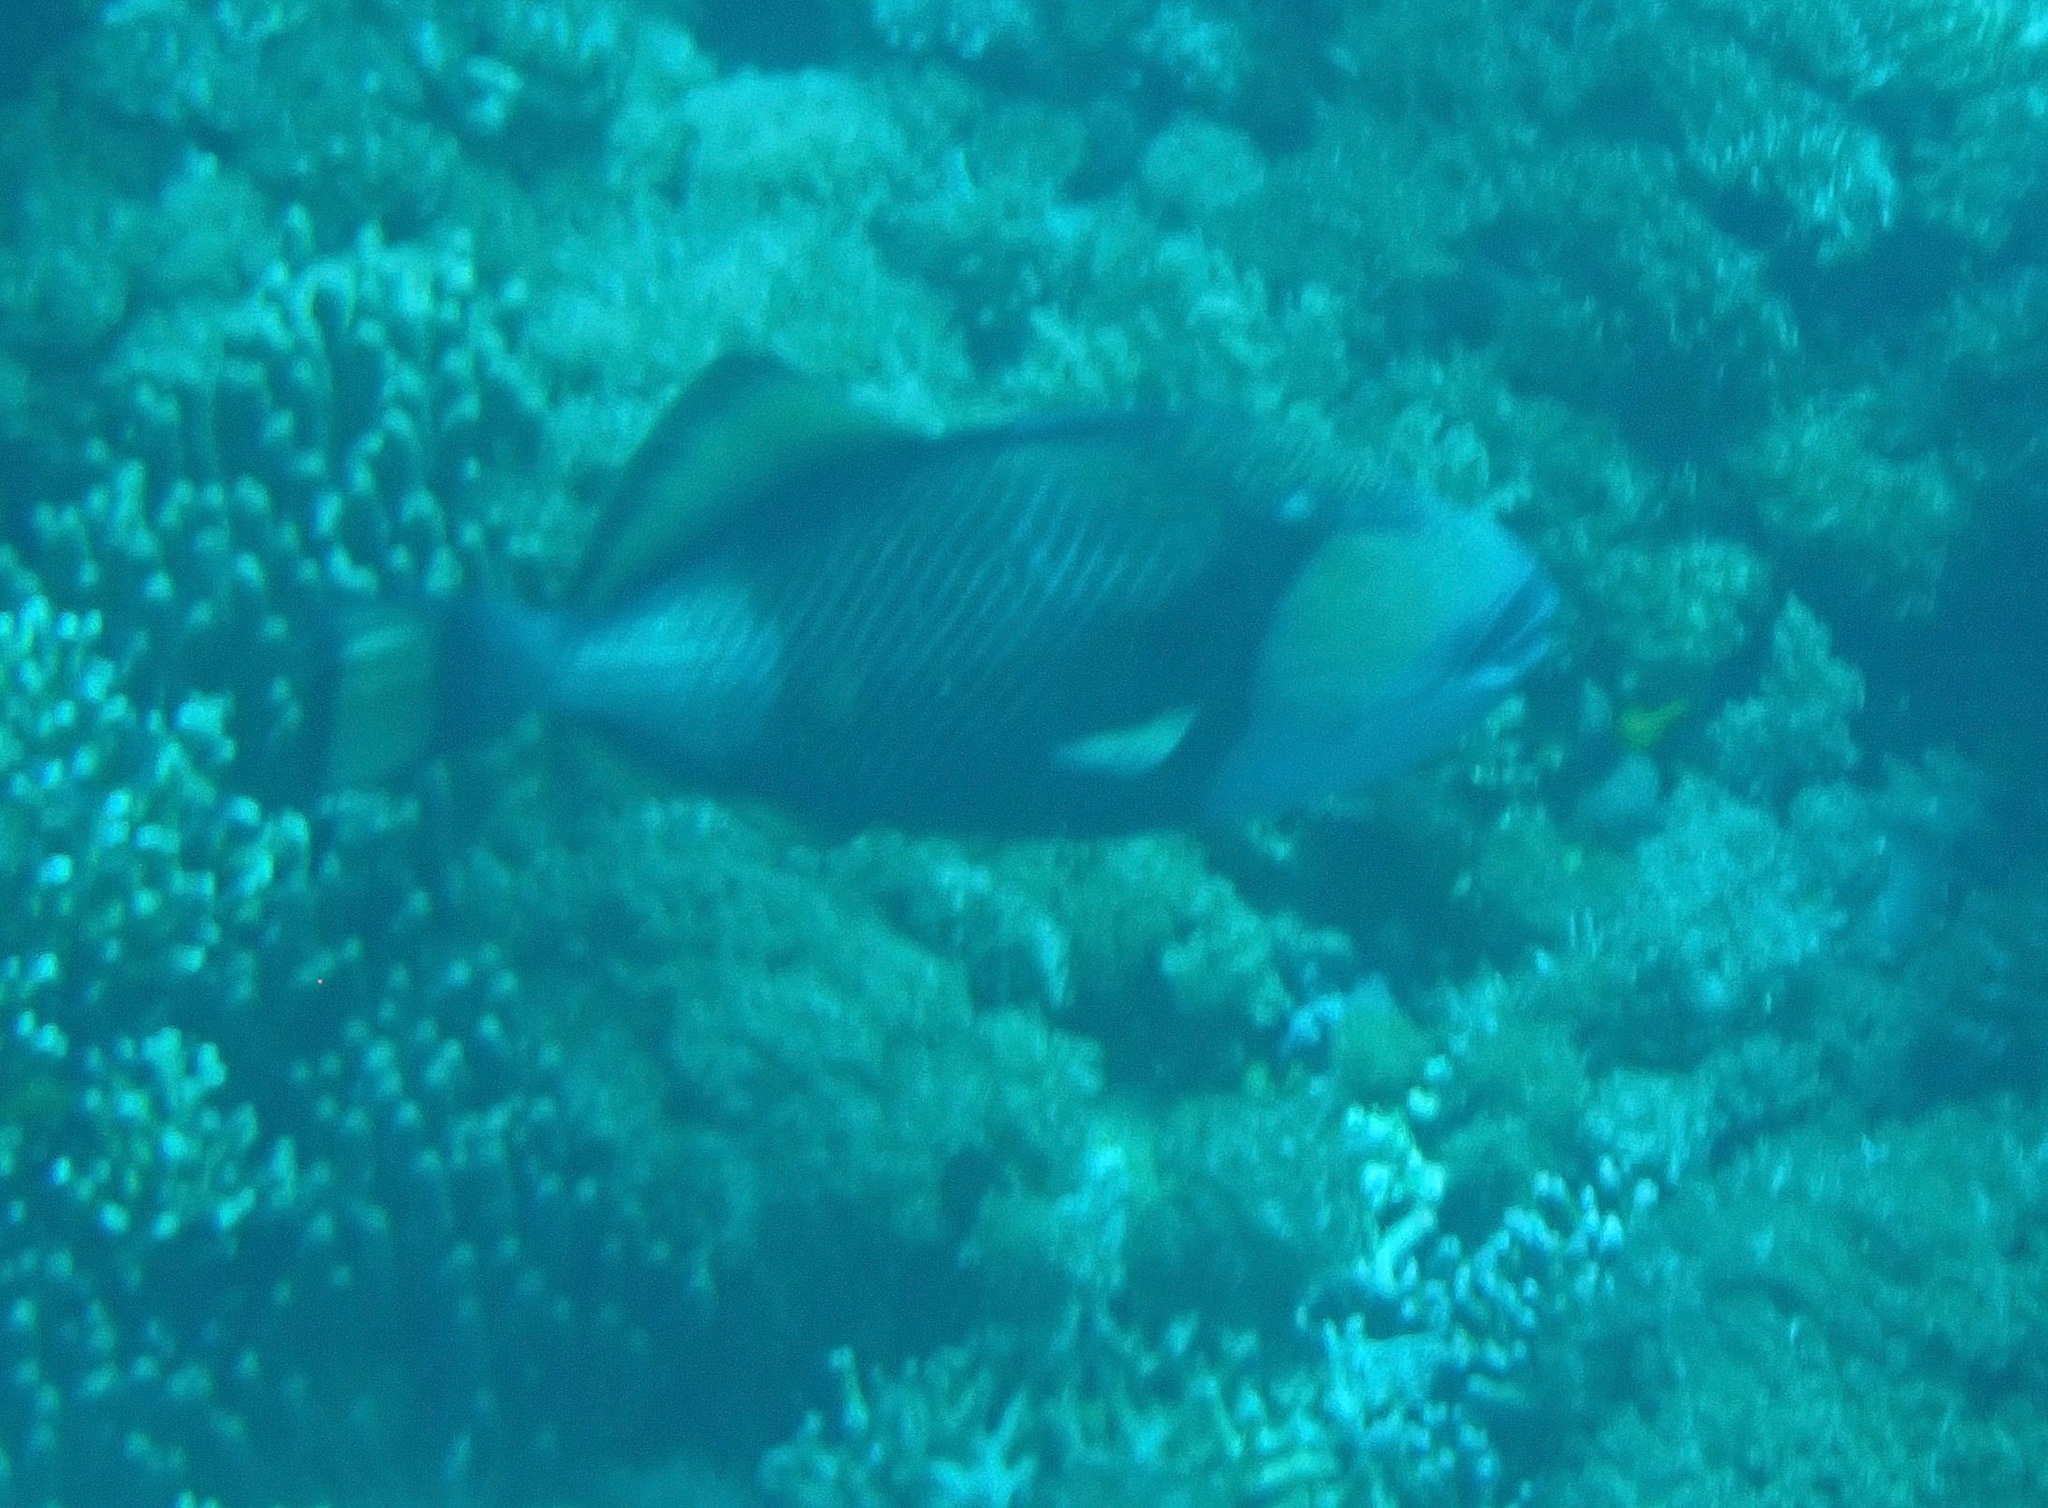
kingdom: Animalia
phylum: Chordata
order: Tetraodontiformes
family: Balistidae
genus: Balistoides
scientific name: Balistoides viridescens
